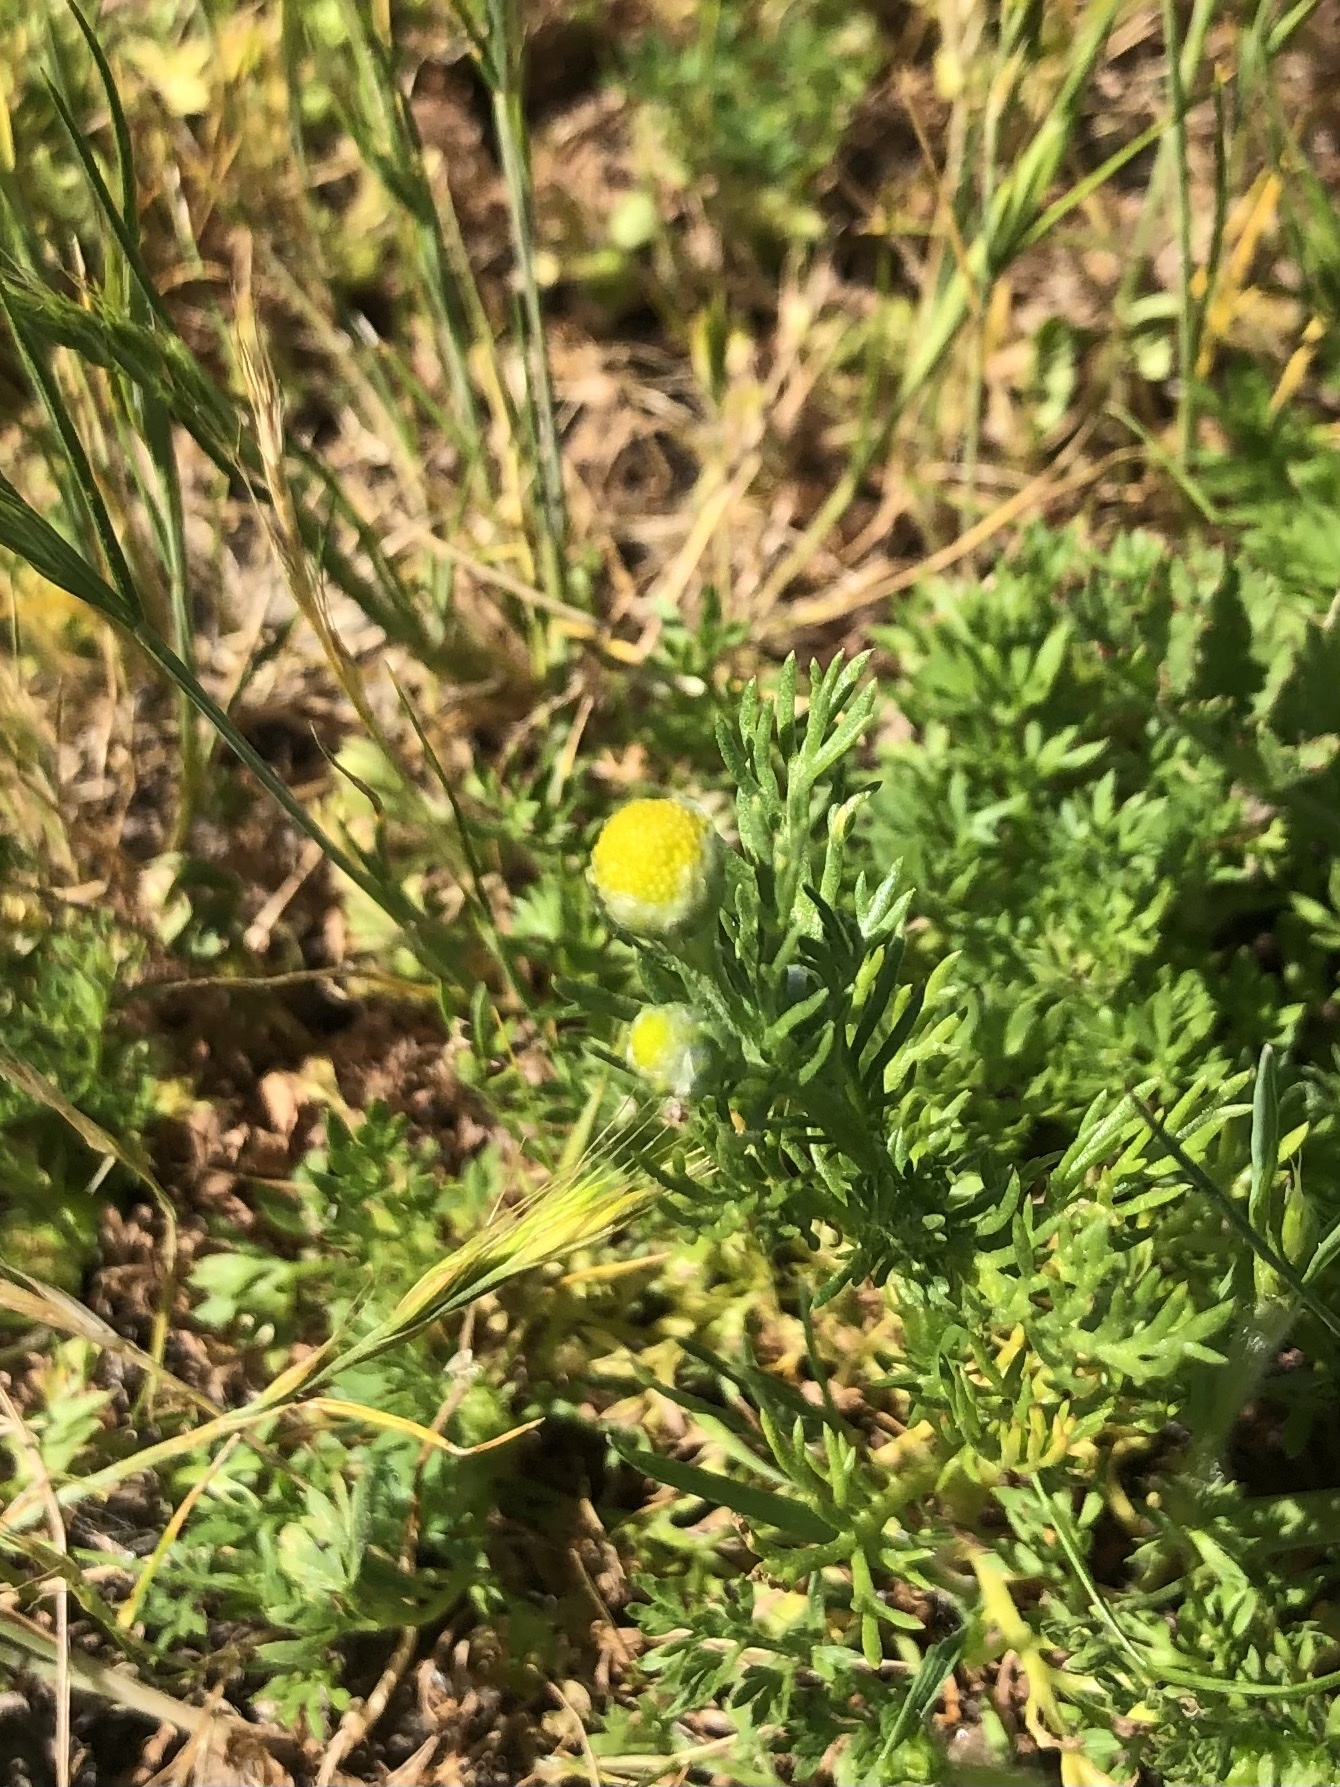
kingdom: Plantae
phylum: Tracheophyta
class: Magnoliopsida
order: Asterales
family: Asteraceae
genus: Matricaria
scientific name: Matricaria discoidea
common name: Disc mayweed
